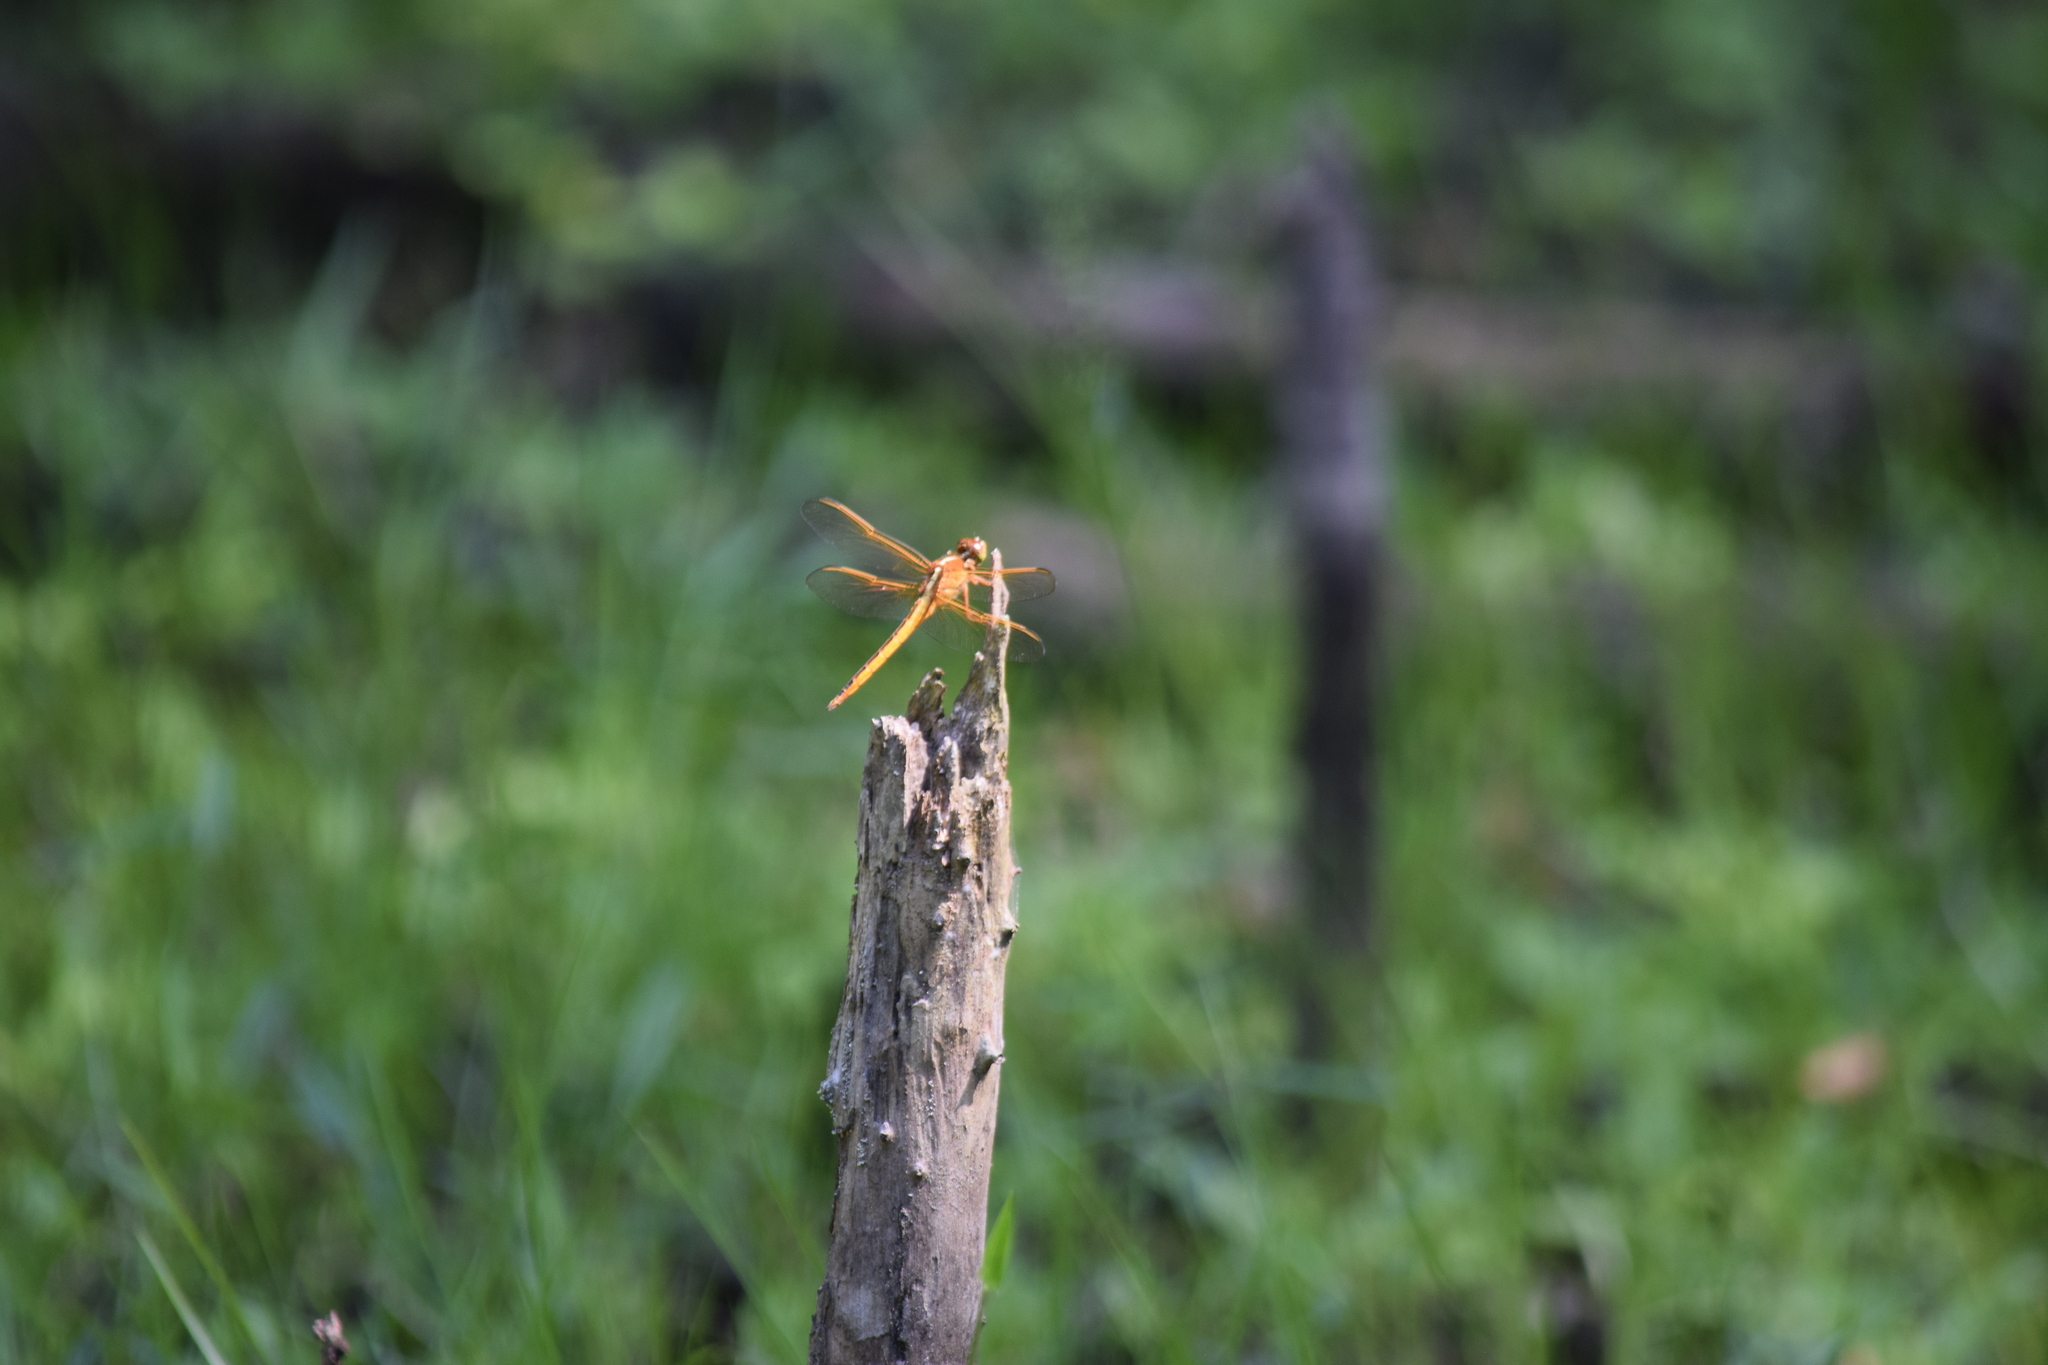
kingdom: Animalia
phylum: Arthropoda
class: Insecta
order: Odonata
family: Libellulidae
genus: Libellula
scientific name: Libellula needhami
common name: Needham's skimmer
